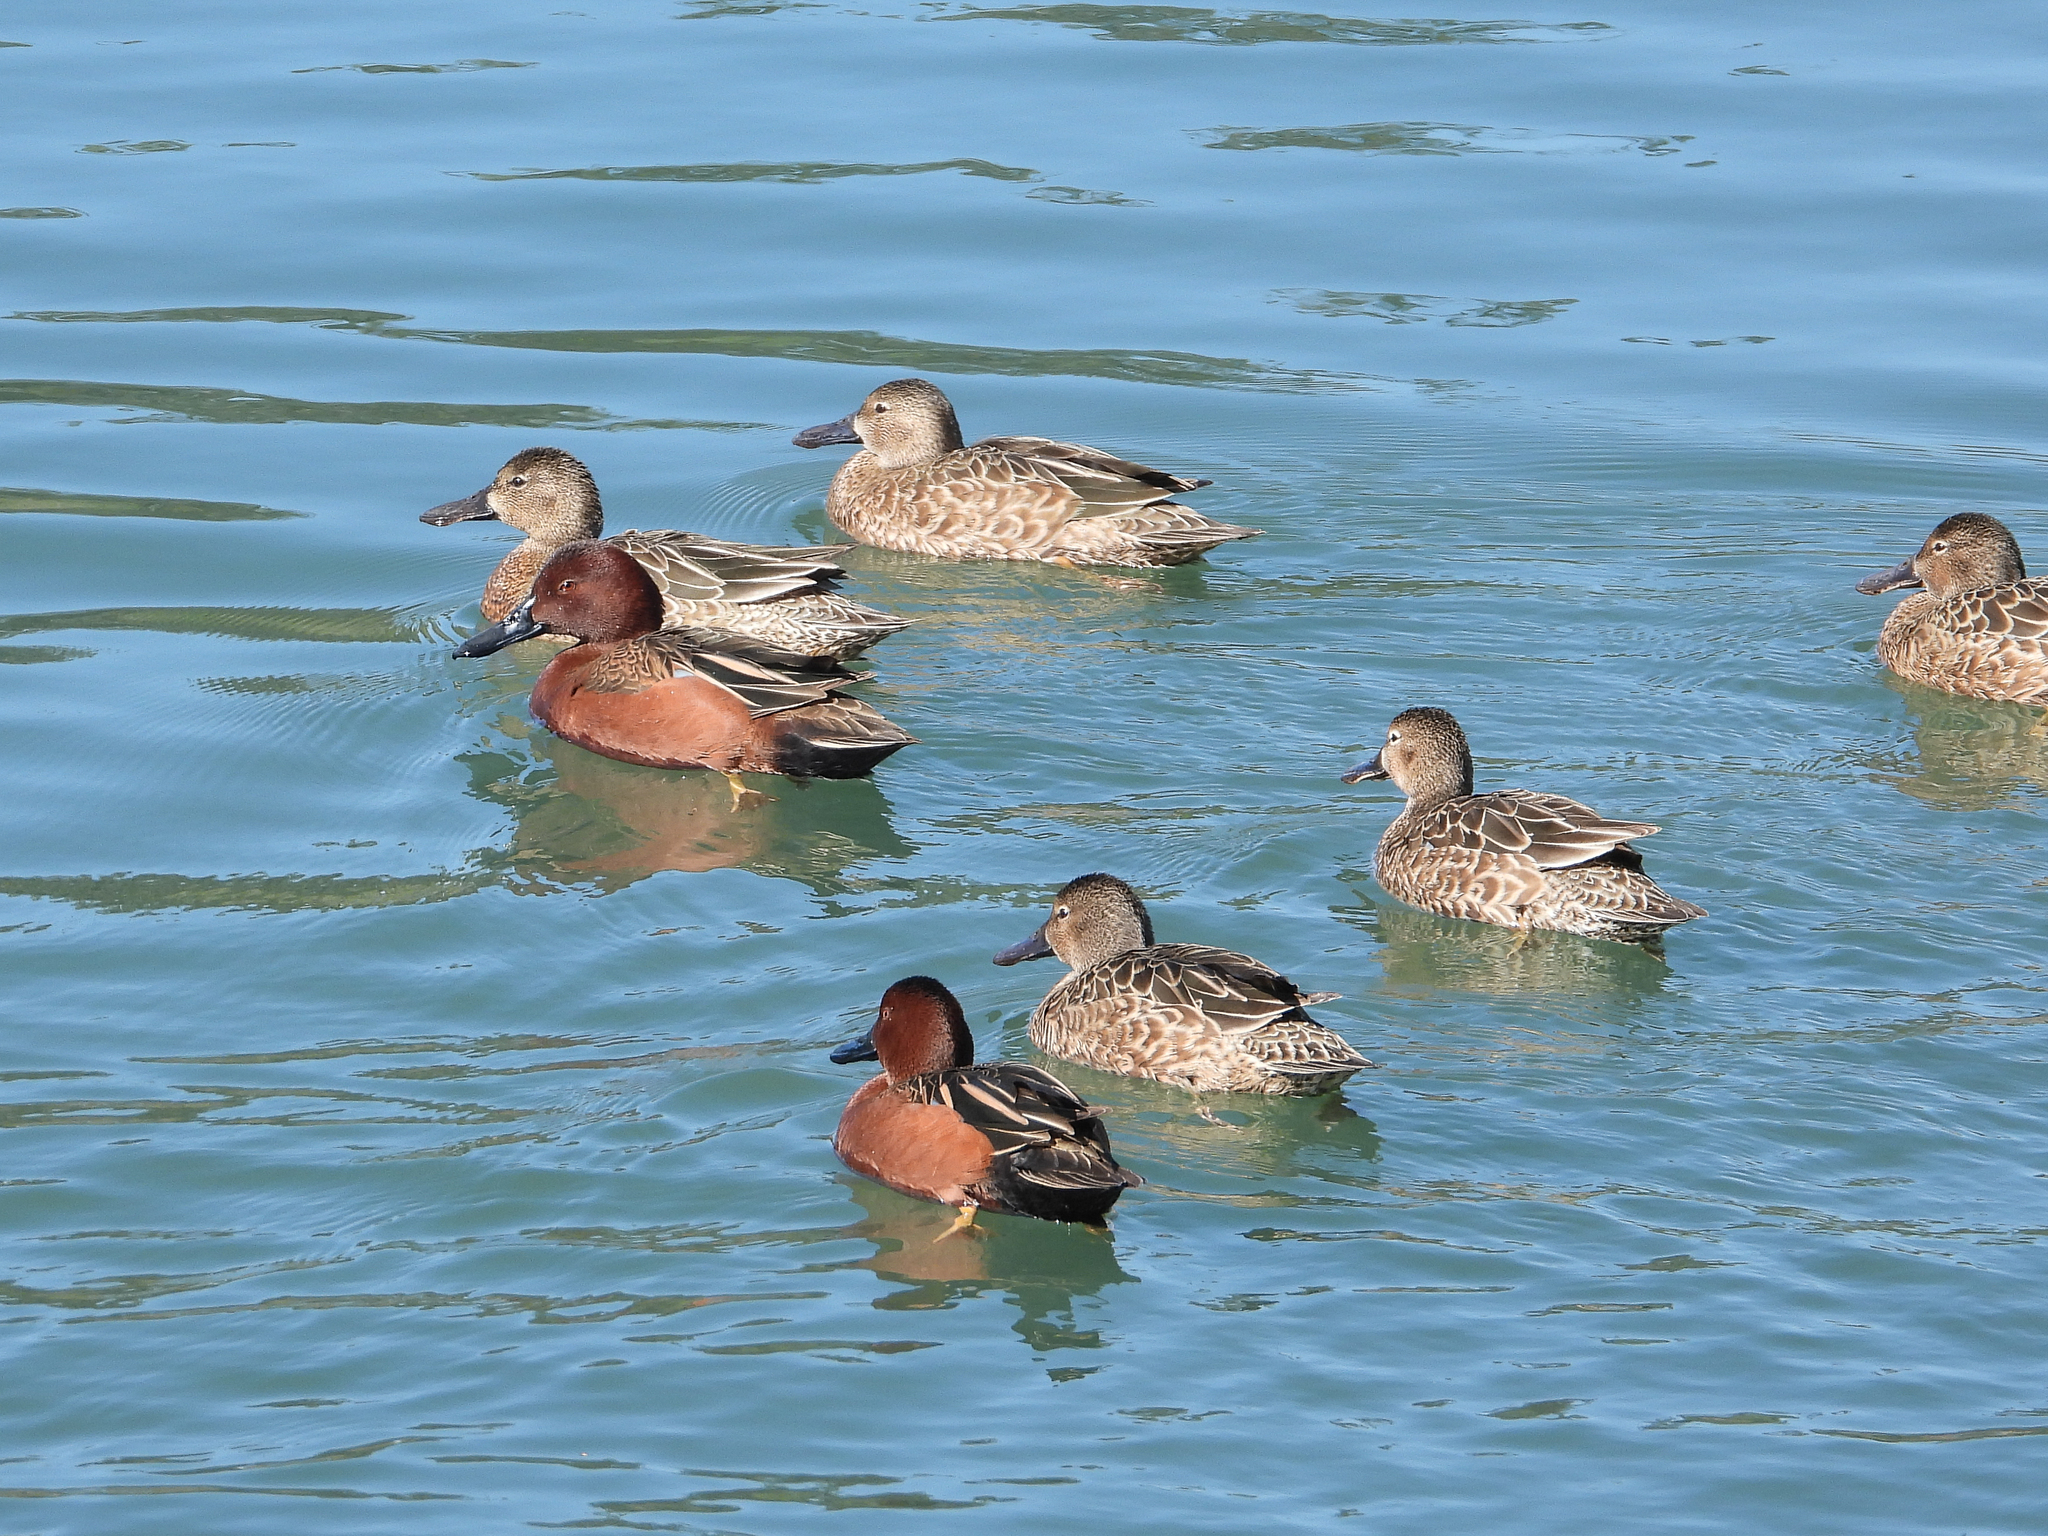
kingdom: Animalia
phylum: Chordata
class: Aves
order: Anseriformes
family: Anatidae
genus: Spatula
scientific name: Spatula cyanoptera
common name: Cinnamon teal
